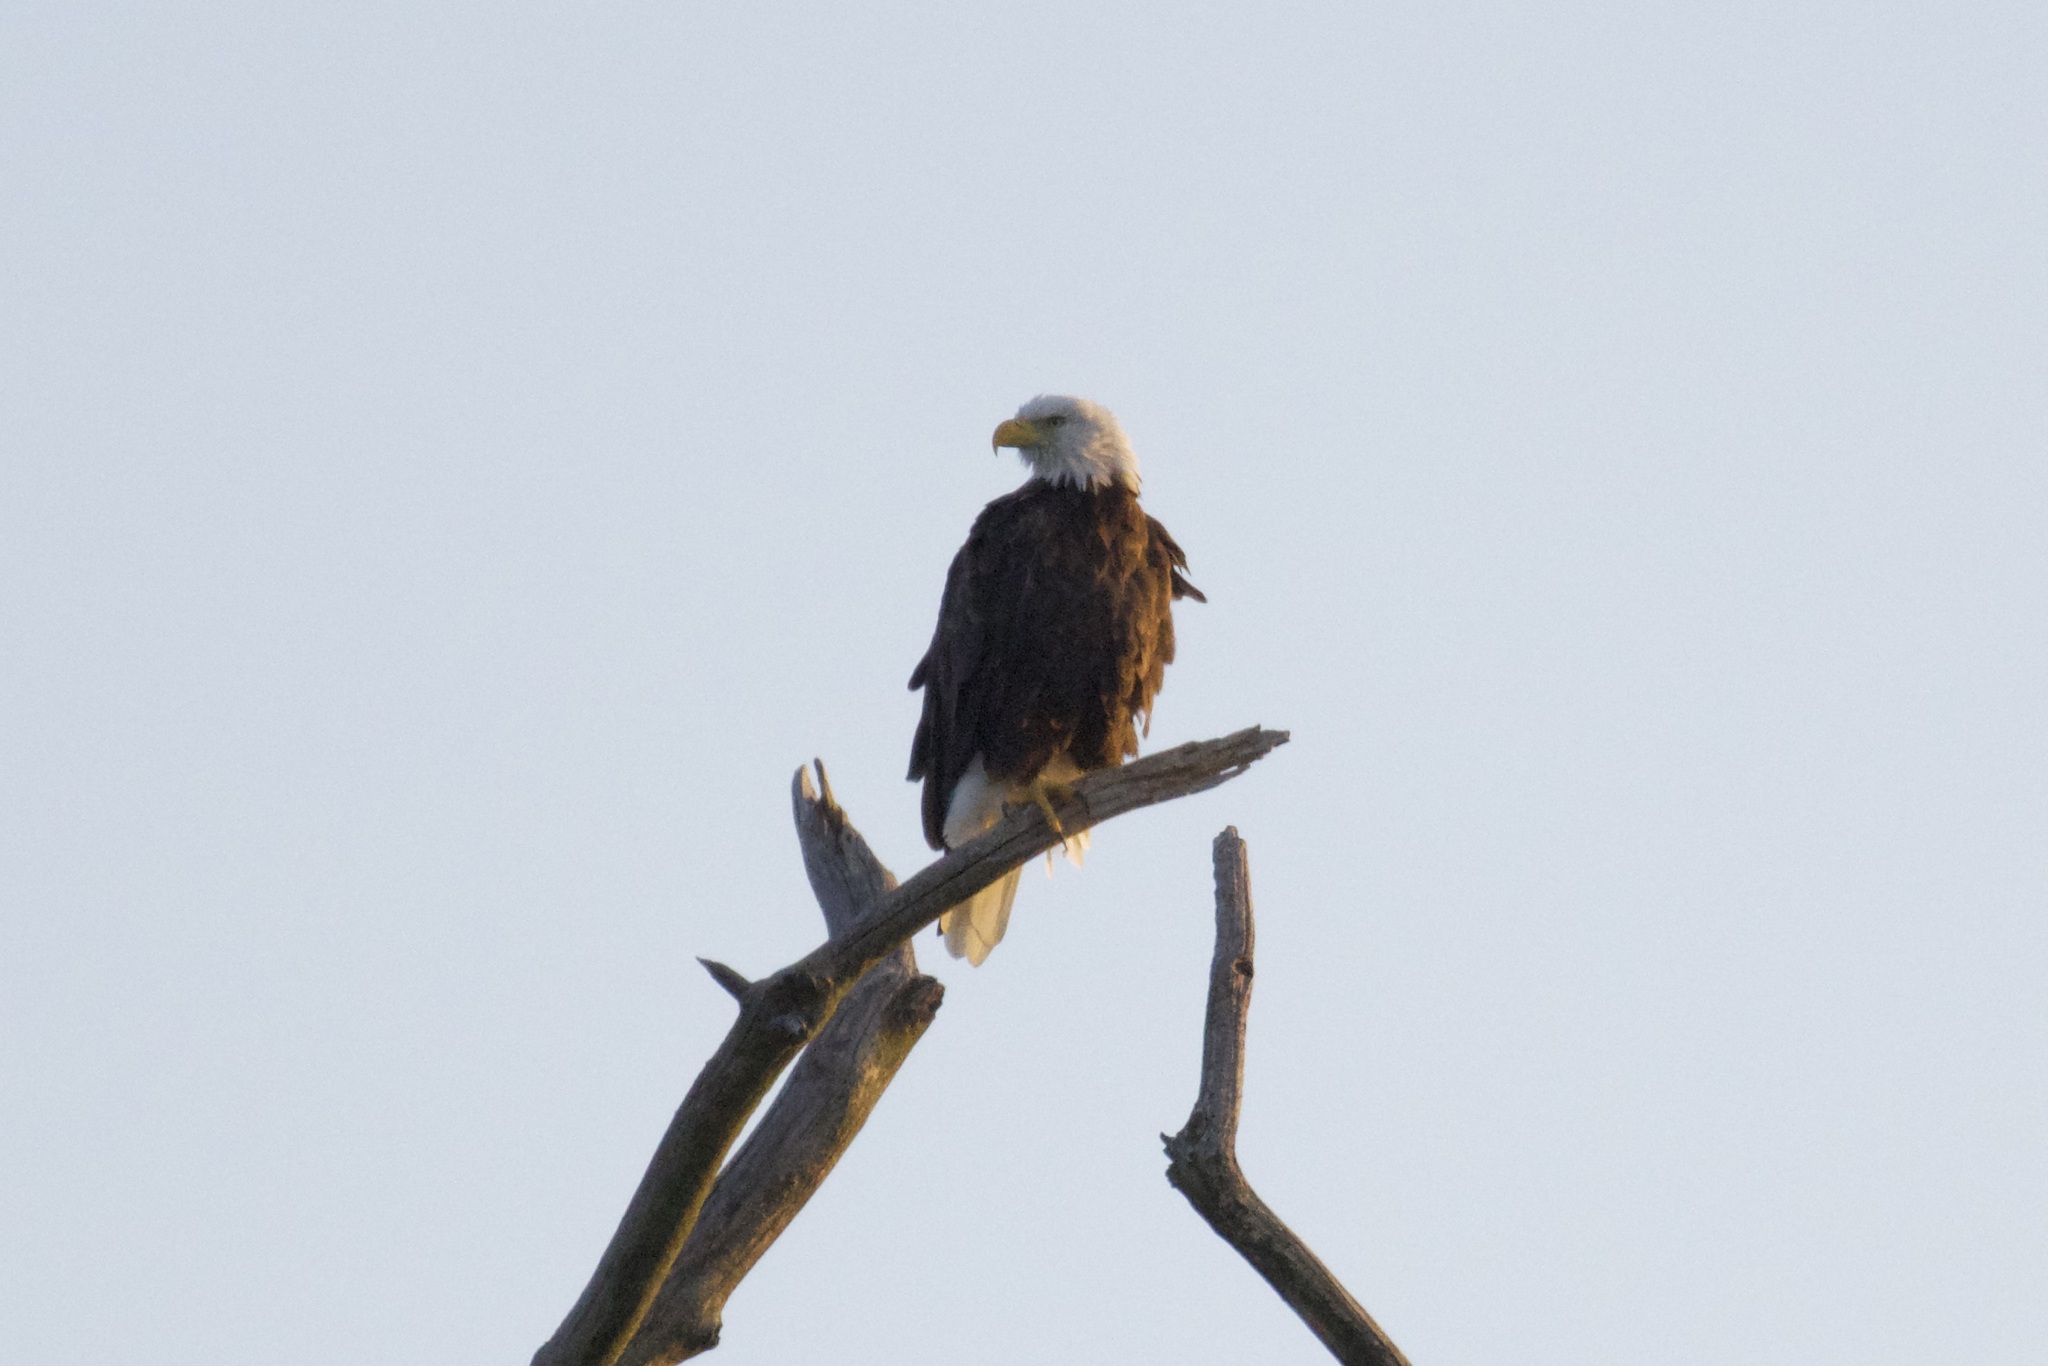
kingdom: Animalia
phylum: Chordata
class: Aves
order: Accipitriformes
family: Accipitridae
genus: Haliaeetus
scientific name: Haliaeetus leucocephalus
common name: Bald eagle
